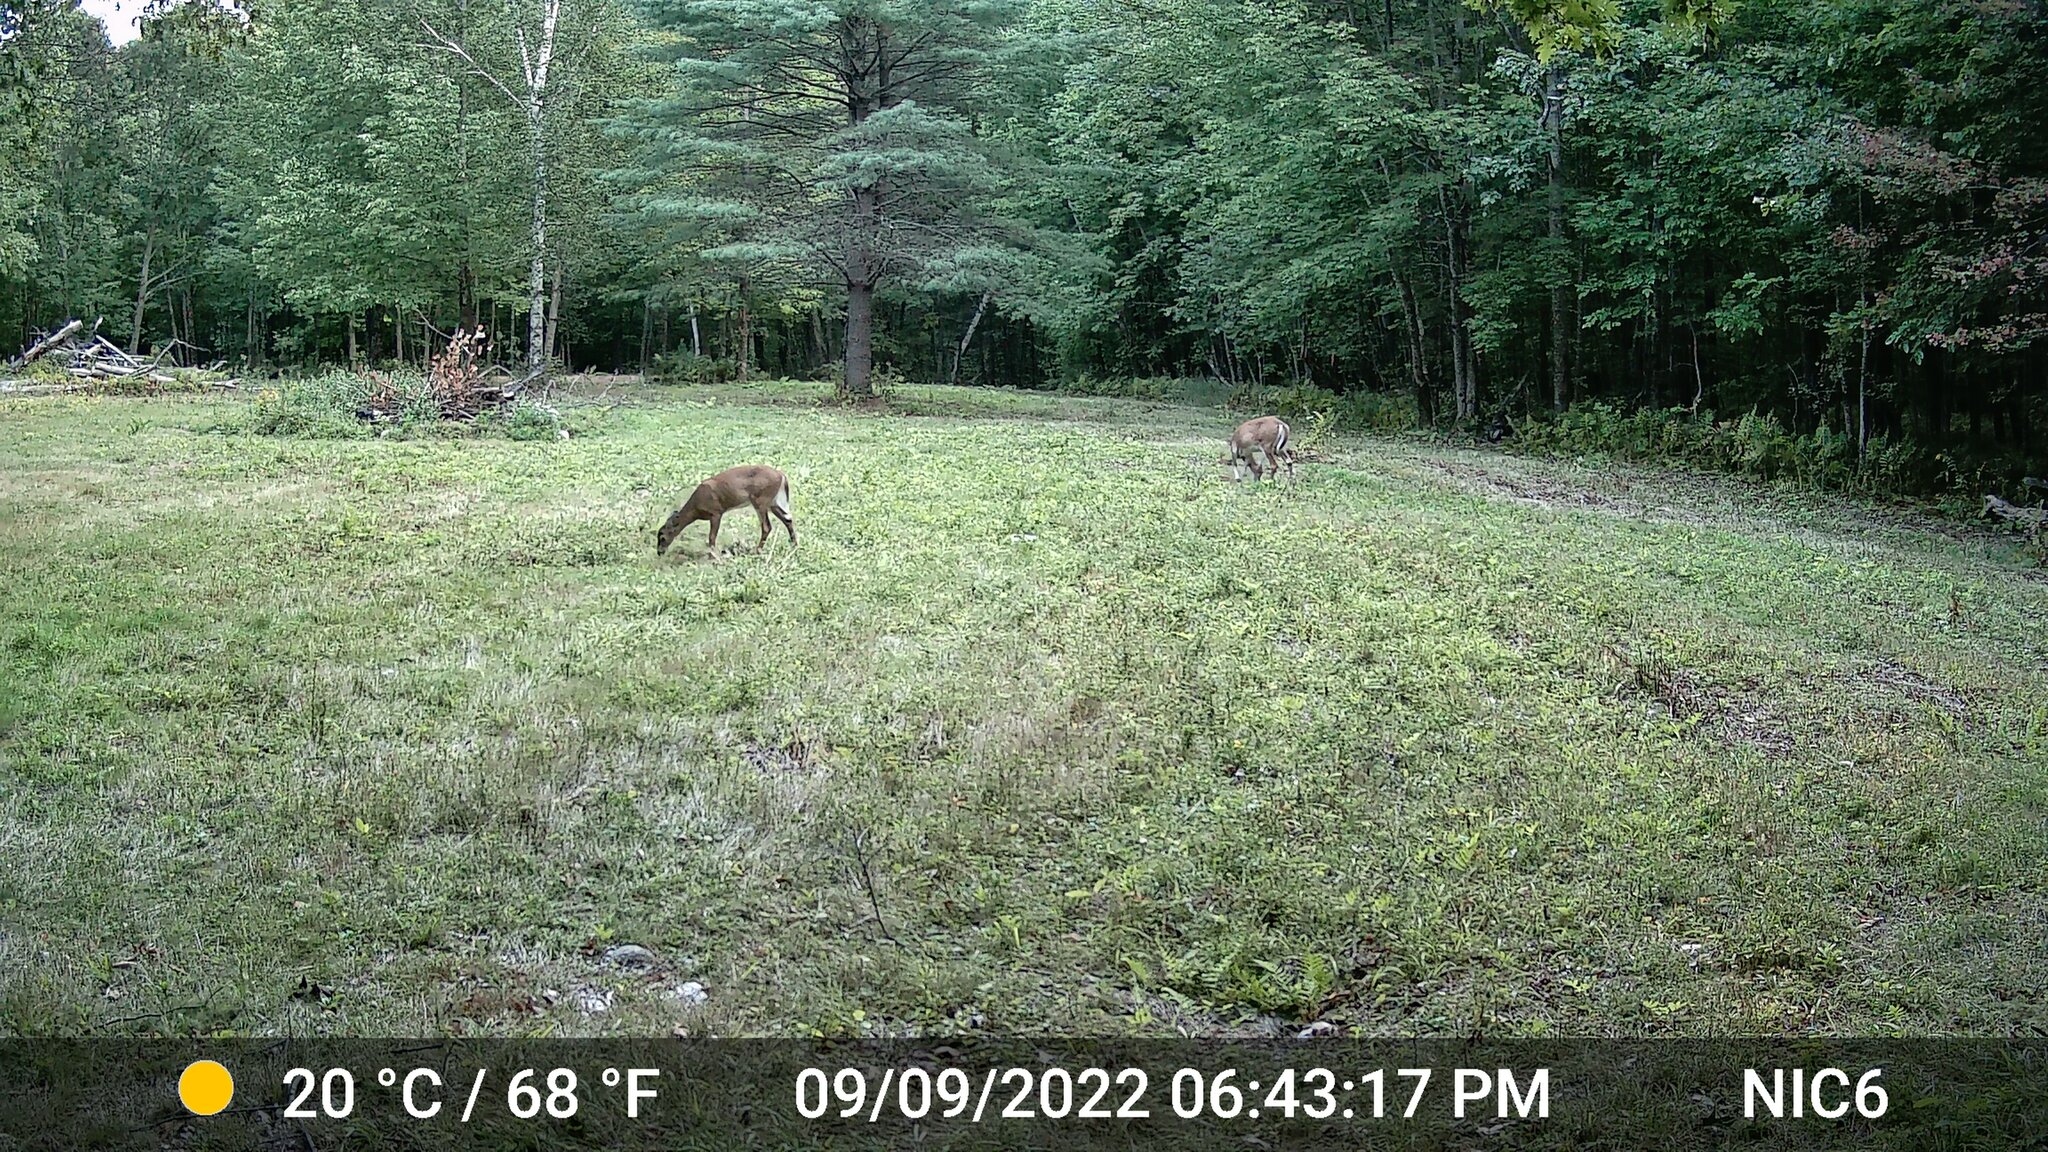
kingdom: Animalia
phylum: Chordata
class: Mammalia
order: Artiodactyla
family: Cervidae
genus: Odocoileus
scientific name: Odocoileus virginianus
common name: White-tailed deer
